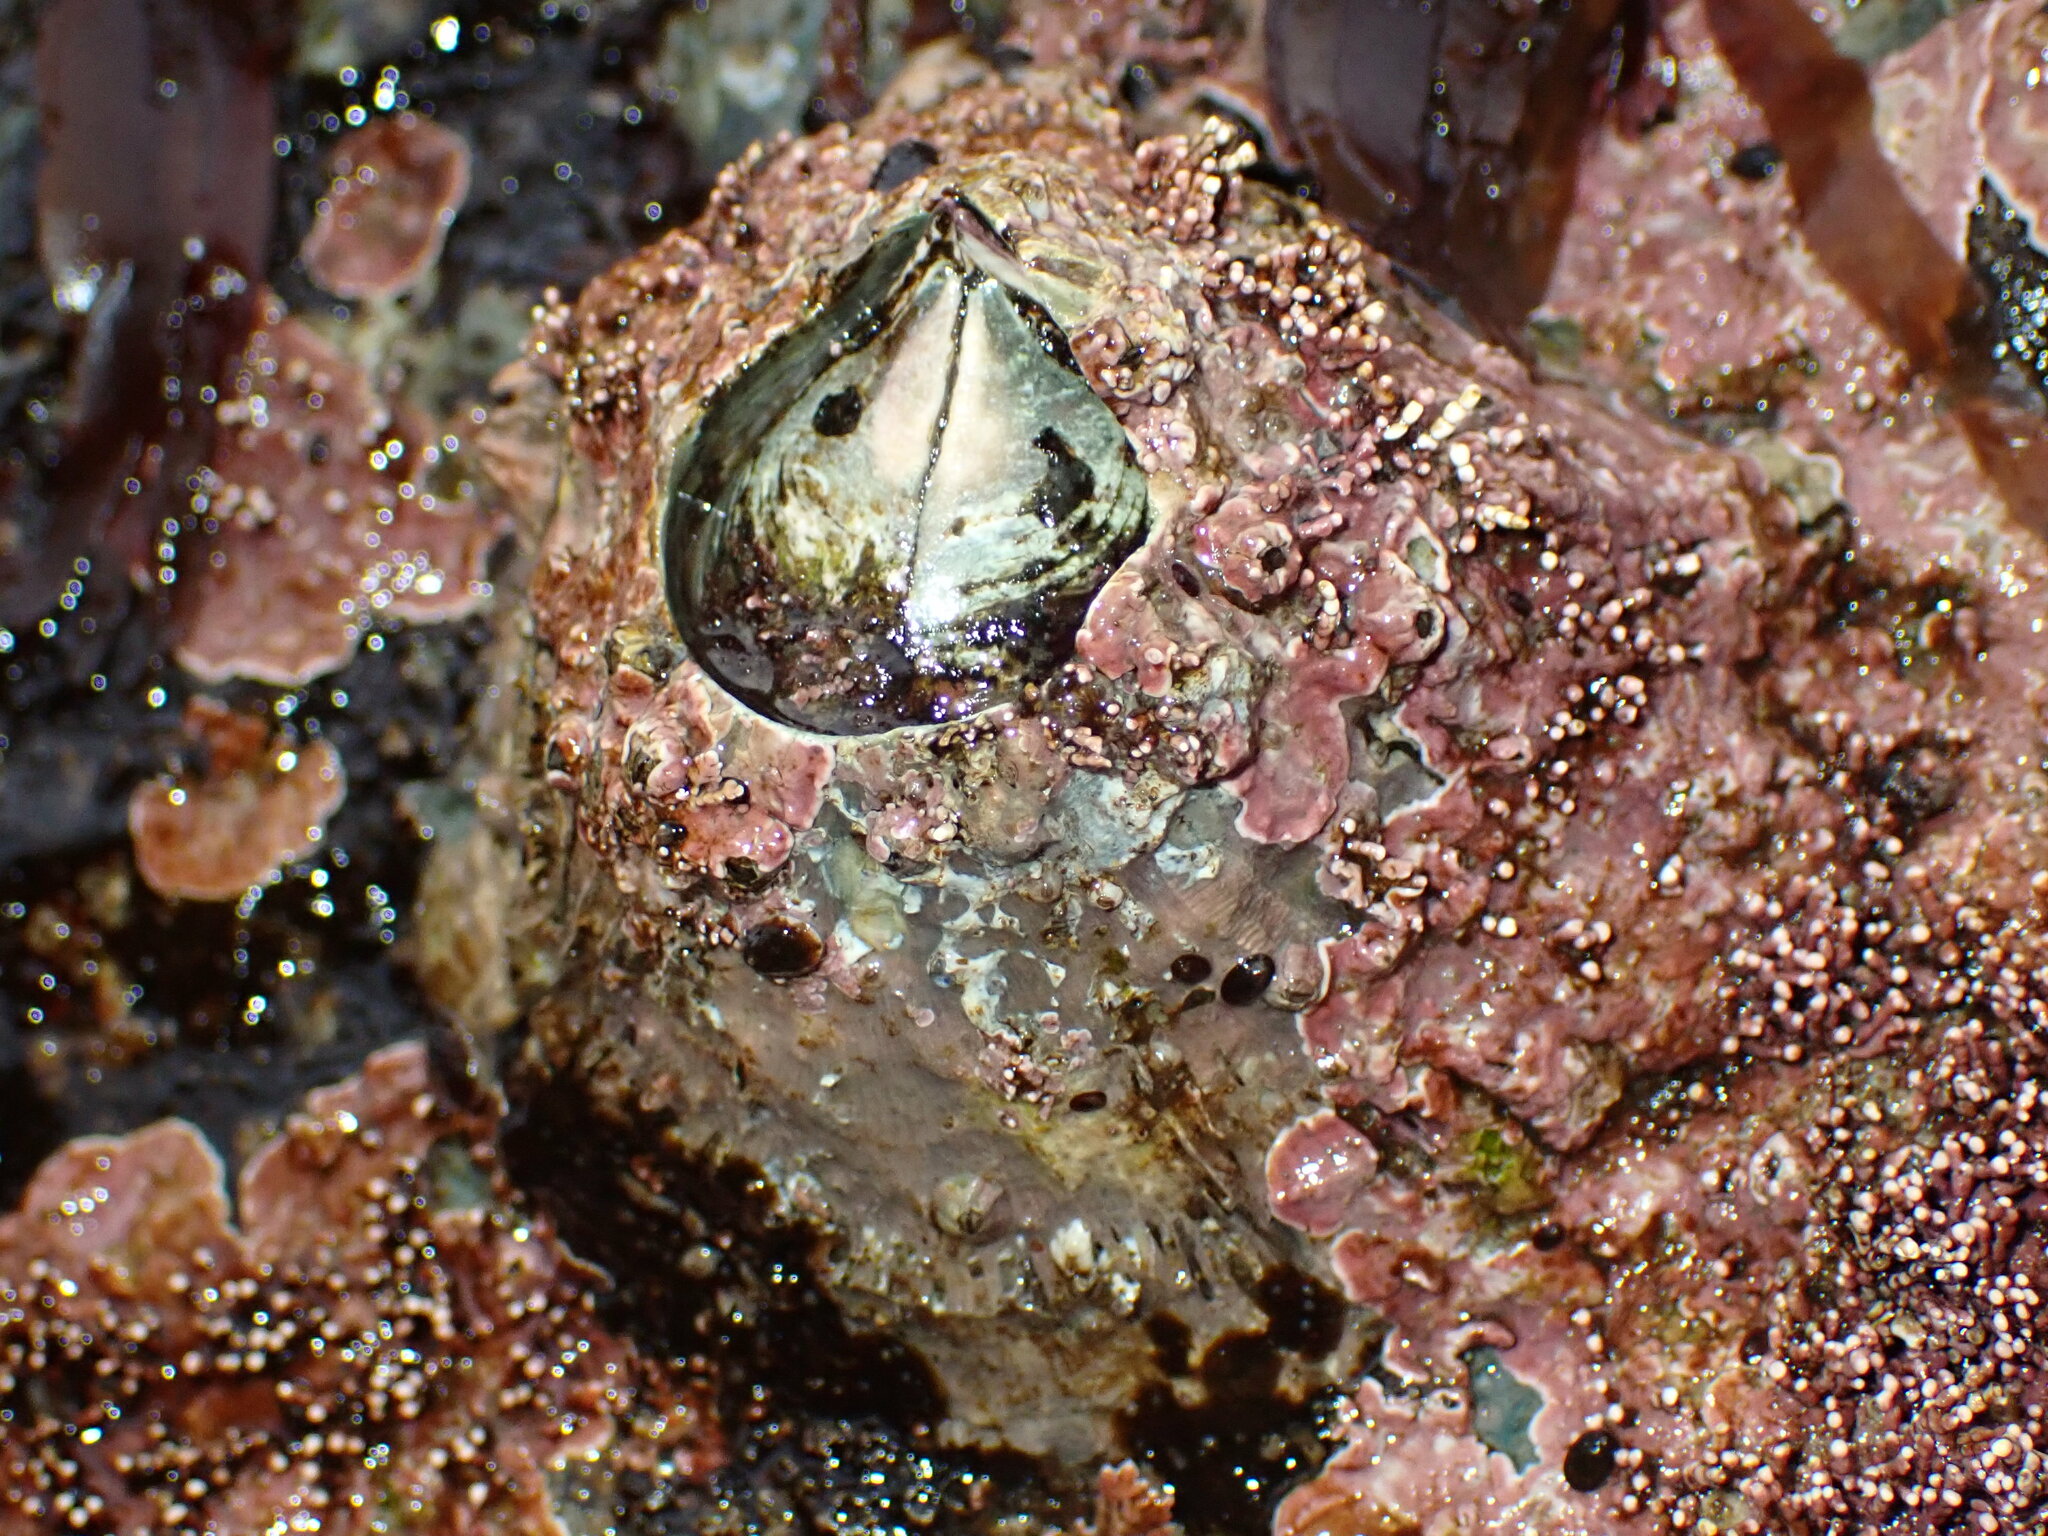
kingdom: Animalia
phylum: Arthropoda
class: Maxillopoda
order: Sessilia
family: Balanidae
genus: Balanus
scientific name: Balanus nubilus
